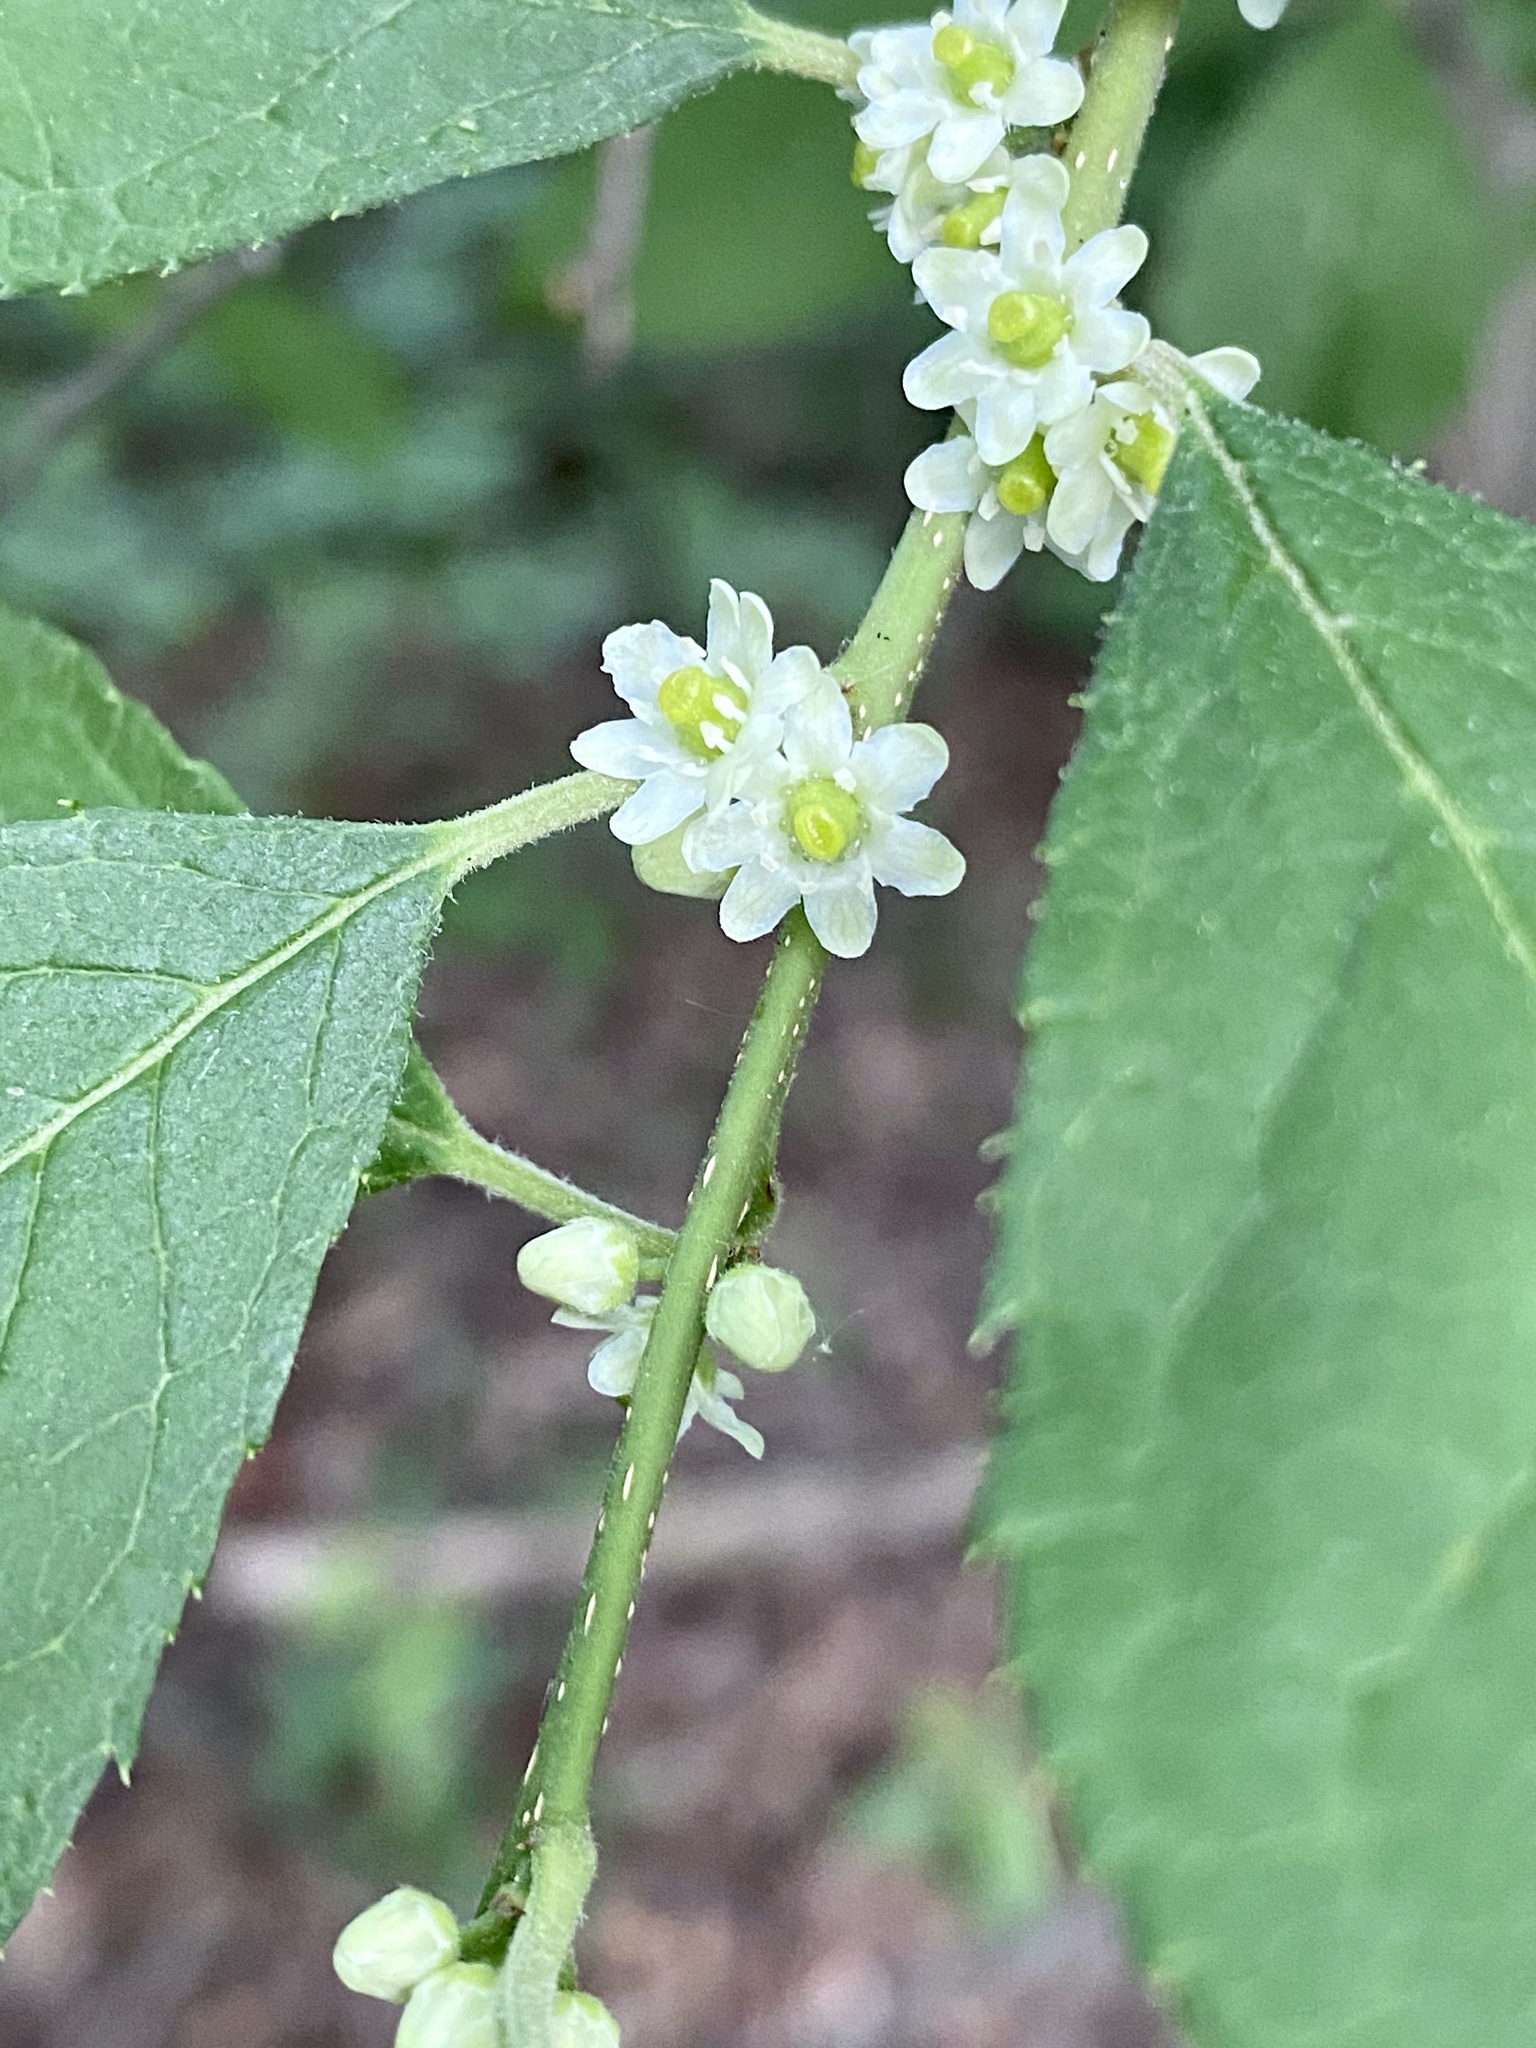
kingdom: Plantae
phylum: Tracheophyta
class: Magnoliopsida
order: Aquifoliales
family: Aquifoliaceae
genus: Ilex
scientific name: Ilex verticillata
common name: Virginia winterberry
